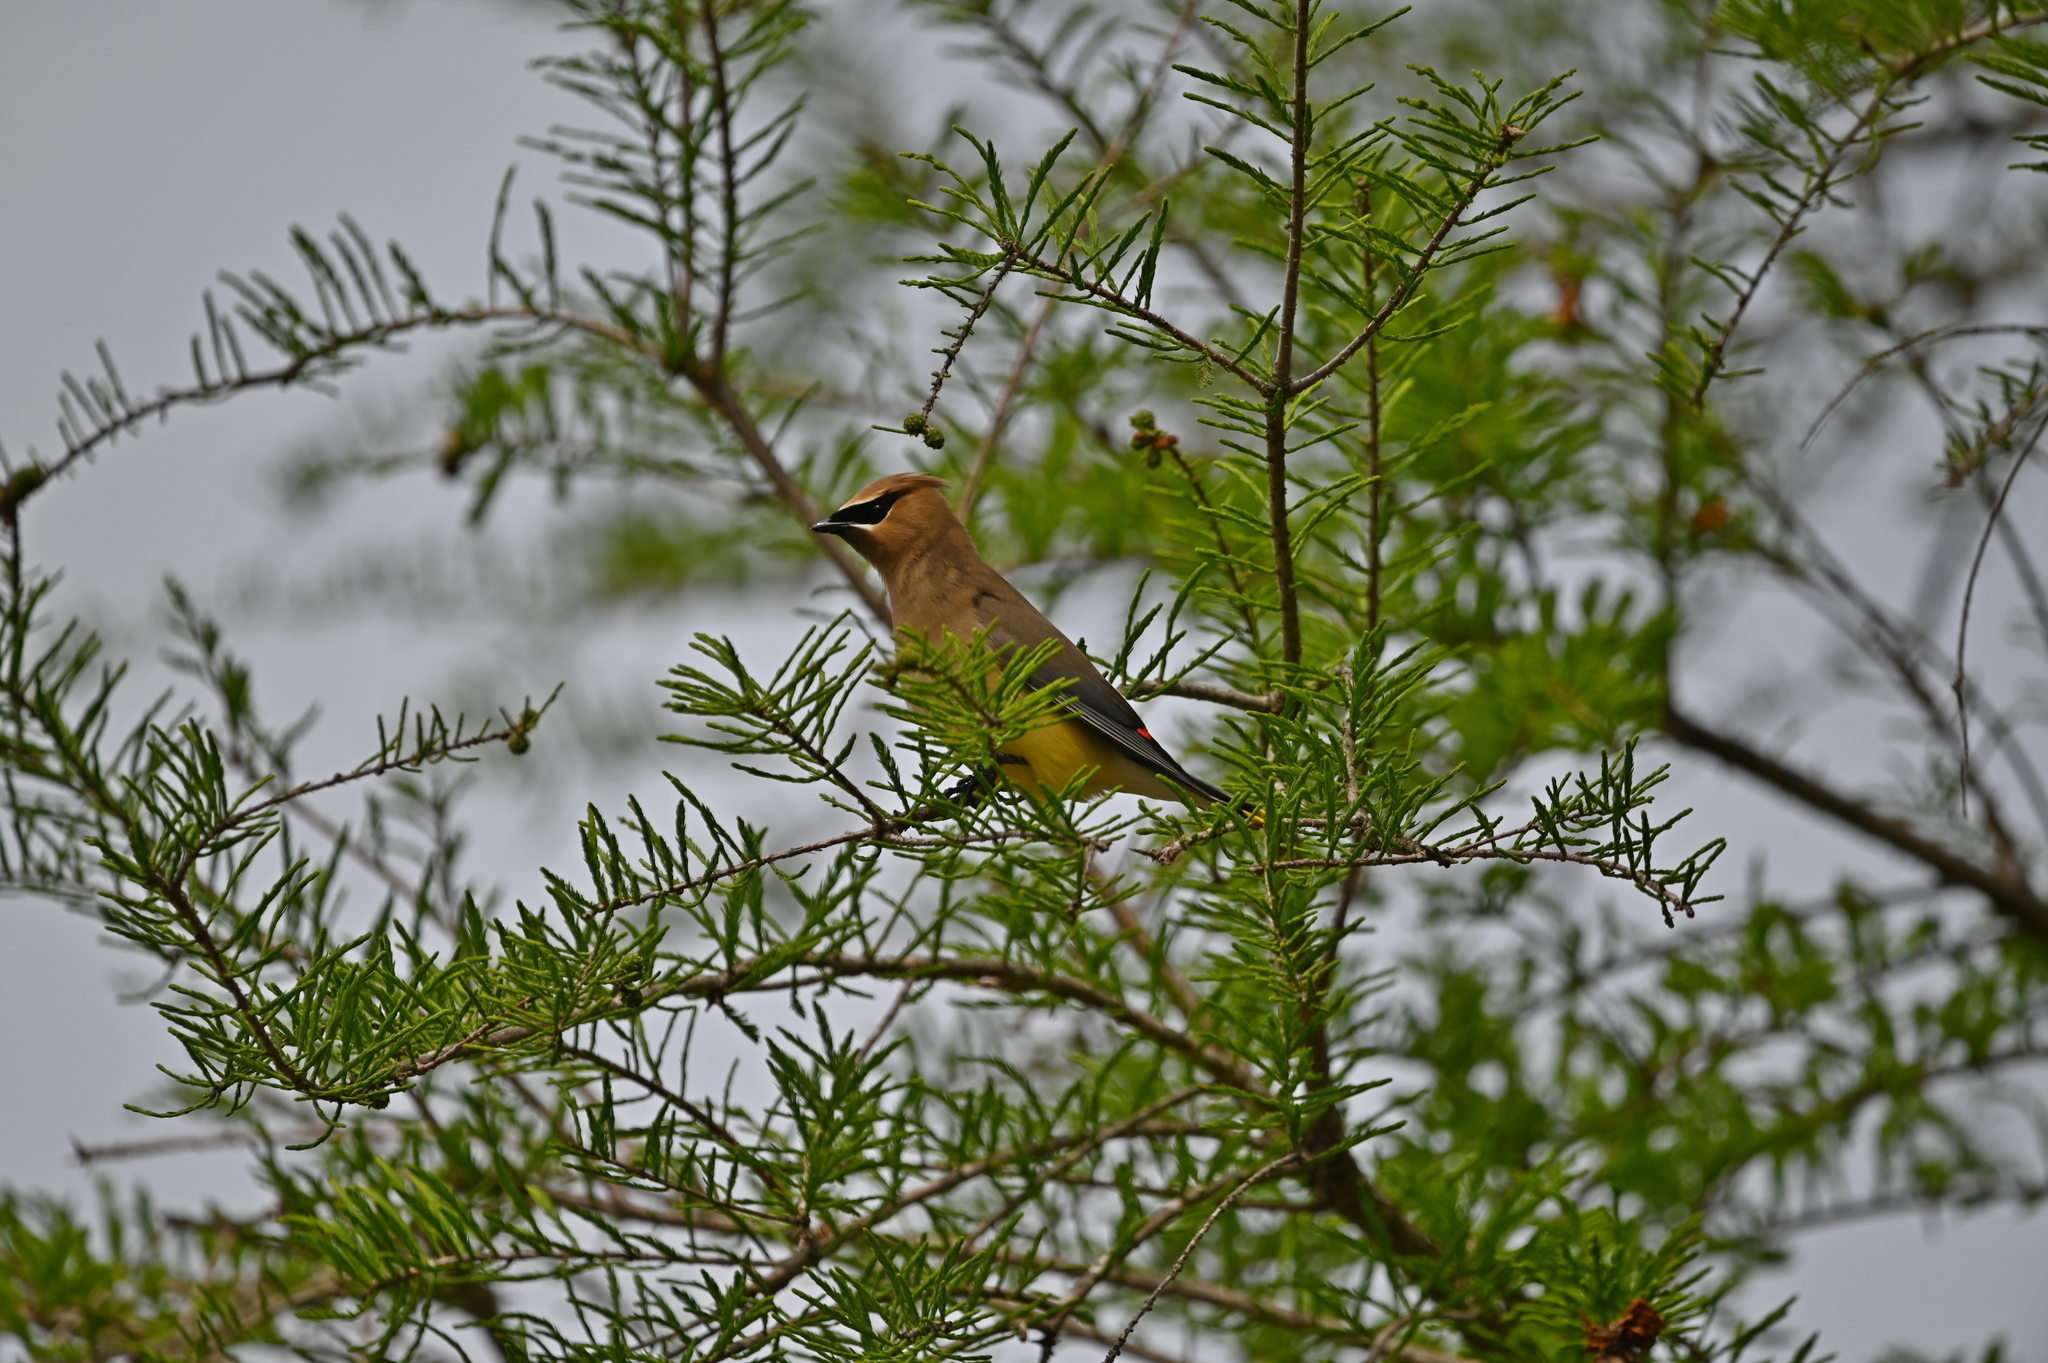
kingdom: Animalia
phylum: Chordata
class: Aves
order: Passeriformes
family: Bombycillidae
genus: Bombycilla
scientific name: Bombycilla cedrorum
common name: Cedar waxwing
